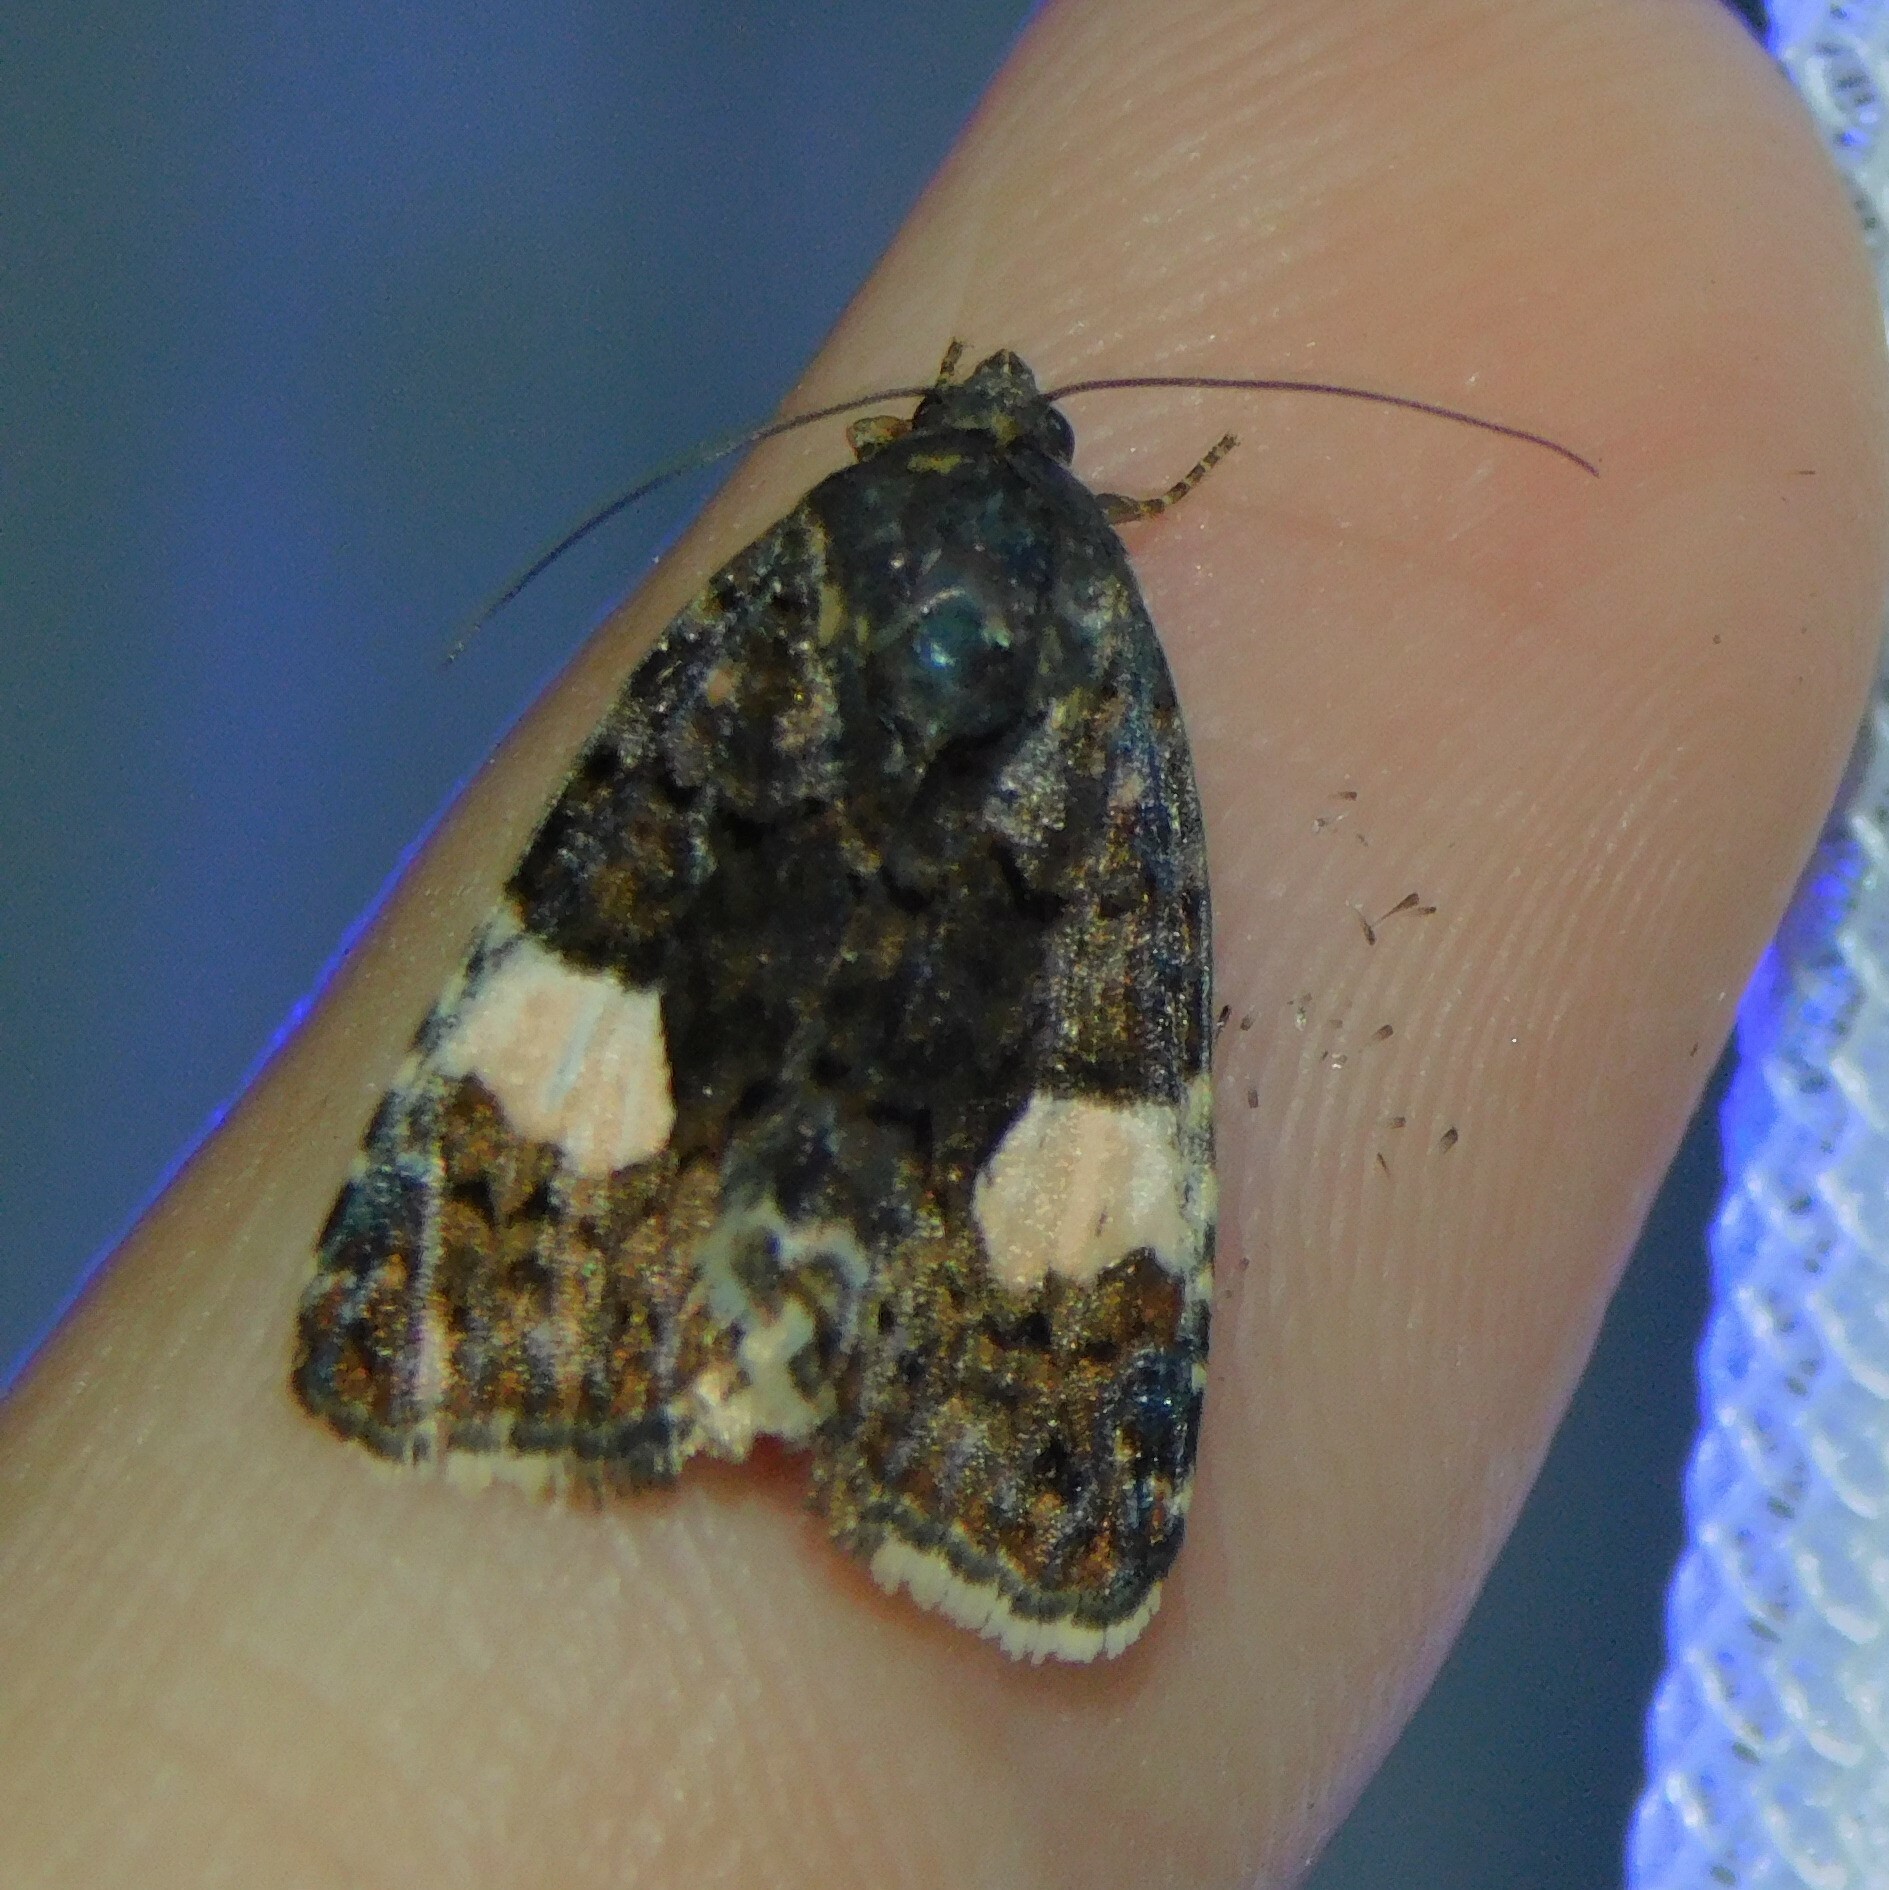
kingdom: Animalia
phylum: Arthropoda
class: Insecta
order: Lepidoptera
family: Erebidae
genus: Tyta
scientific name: Tyta luctuosa
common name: Four-spotted
